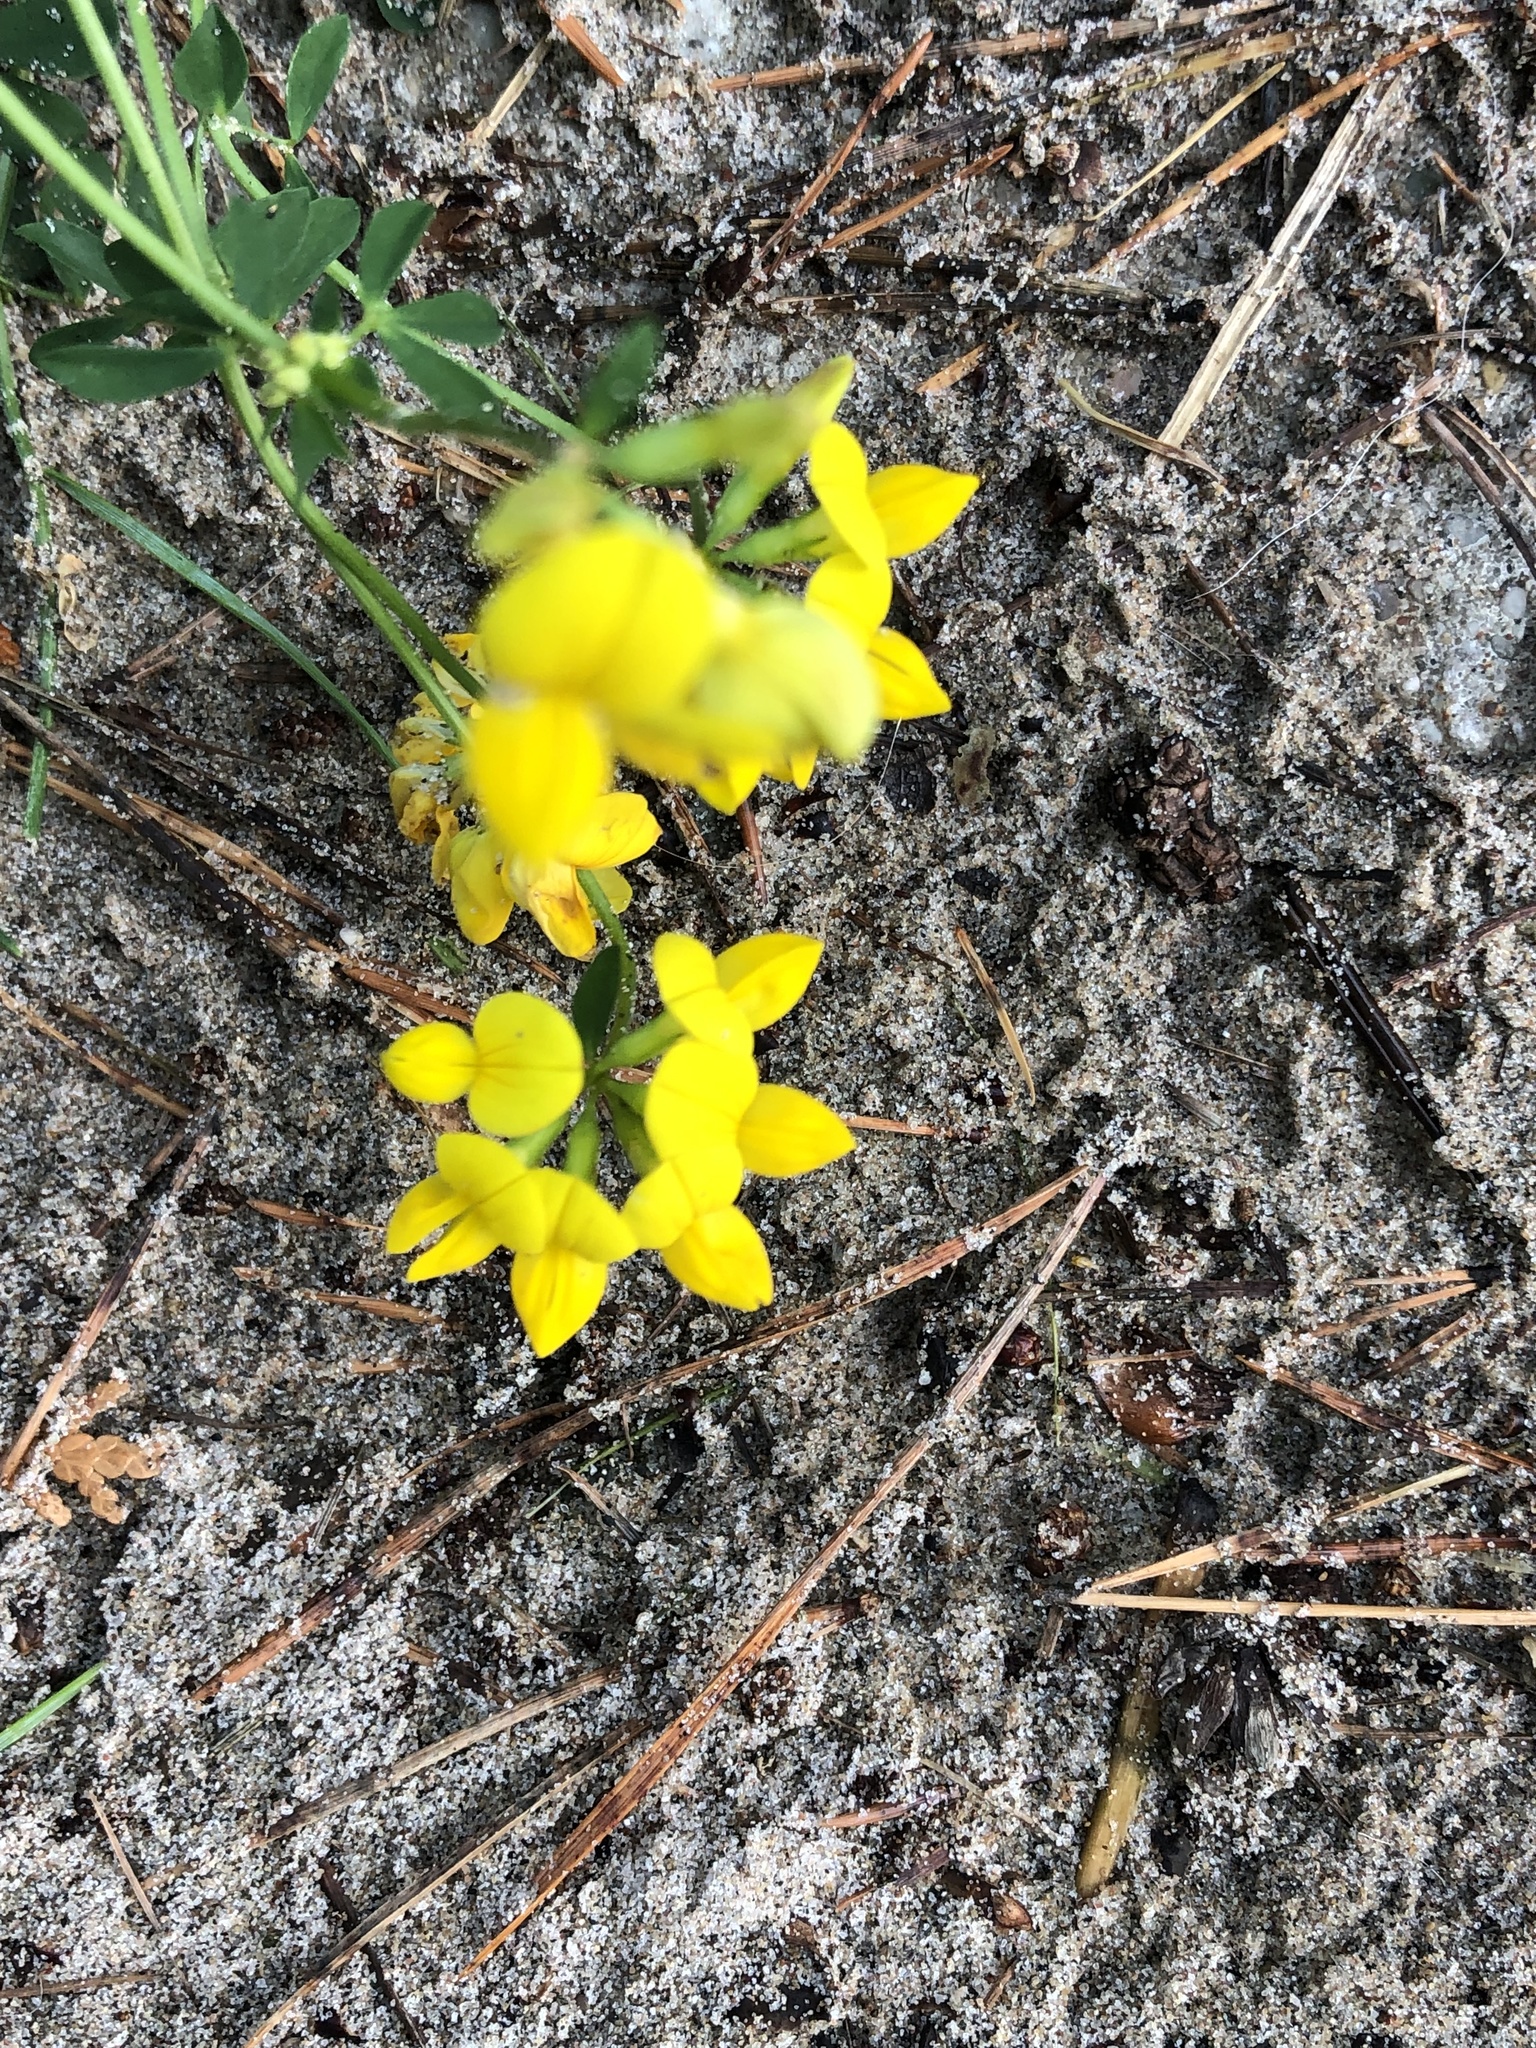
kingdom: Plantae
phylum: Tracheophyta
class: Magnoliopsida
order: Fabales
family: Fabaceae
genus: Lotus
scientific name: Lotus corniculatus
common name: Common bird's-foot-trefoil
